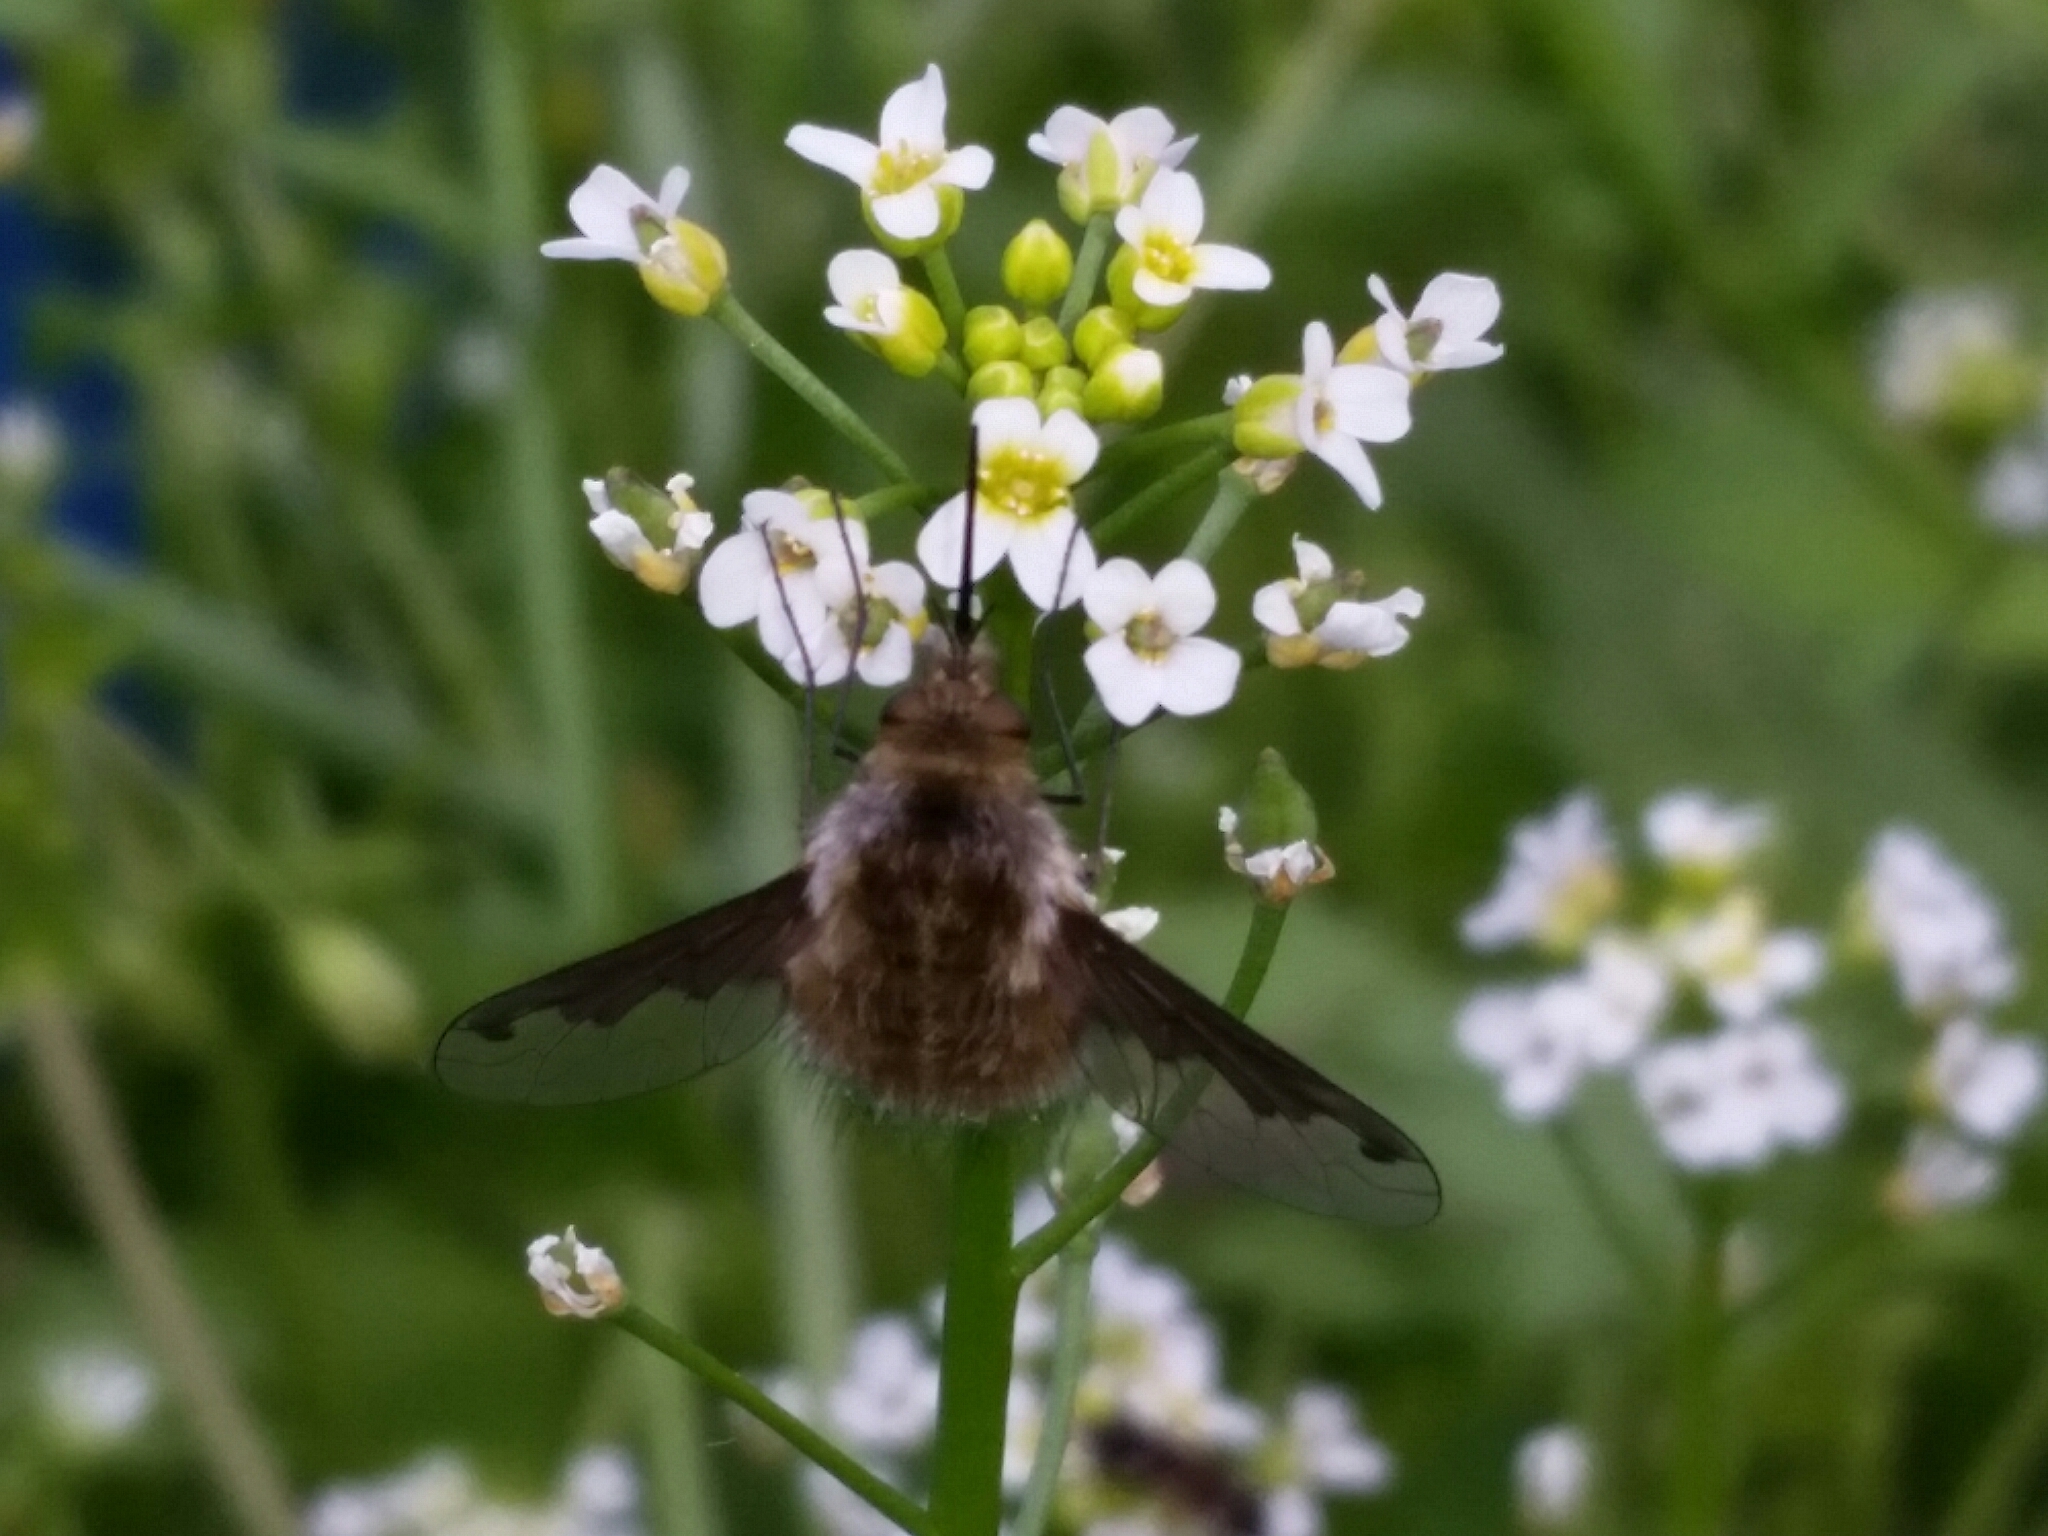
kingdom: Animalia
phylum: Arthropoda
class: Insecta
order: Diptera
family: Bombyliidae
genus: Bombylius
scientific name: Bombylius major
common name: Bee fly
